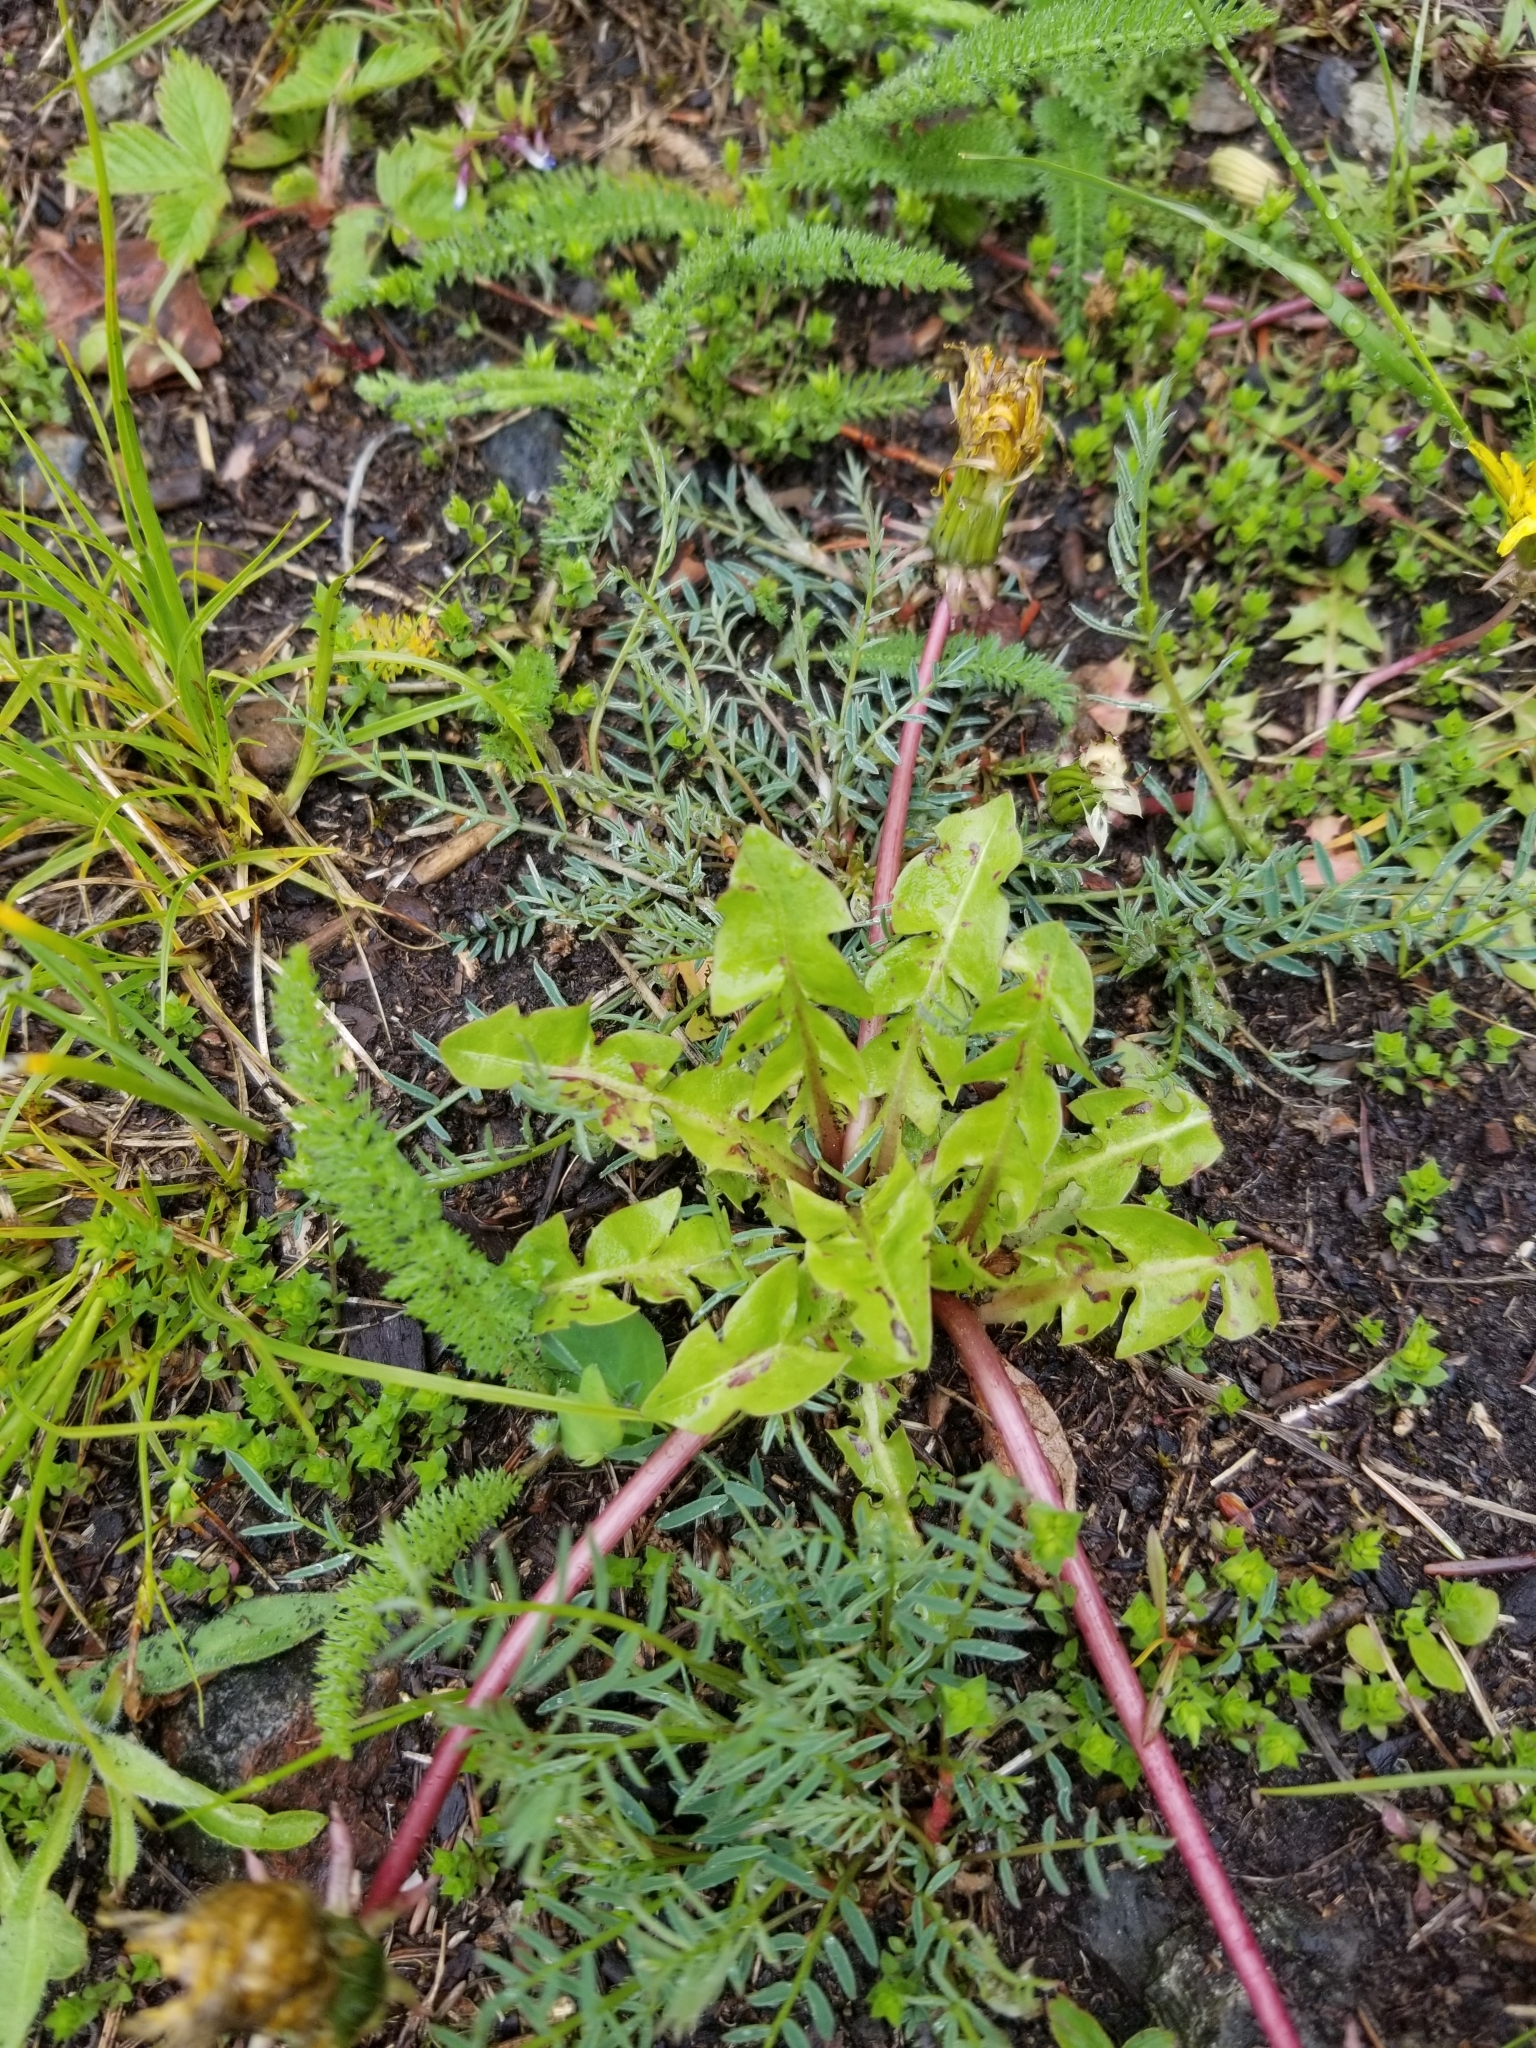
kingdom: Plantae
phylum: Tracheophyta
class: Magnoliopsida
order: Asterales
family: Asteraceae
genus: Taraxacum
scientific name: Taraxacum officinale
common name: Common dandelion
